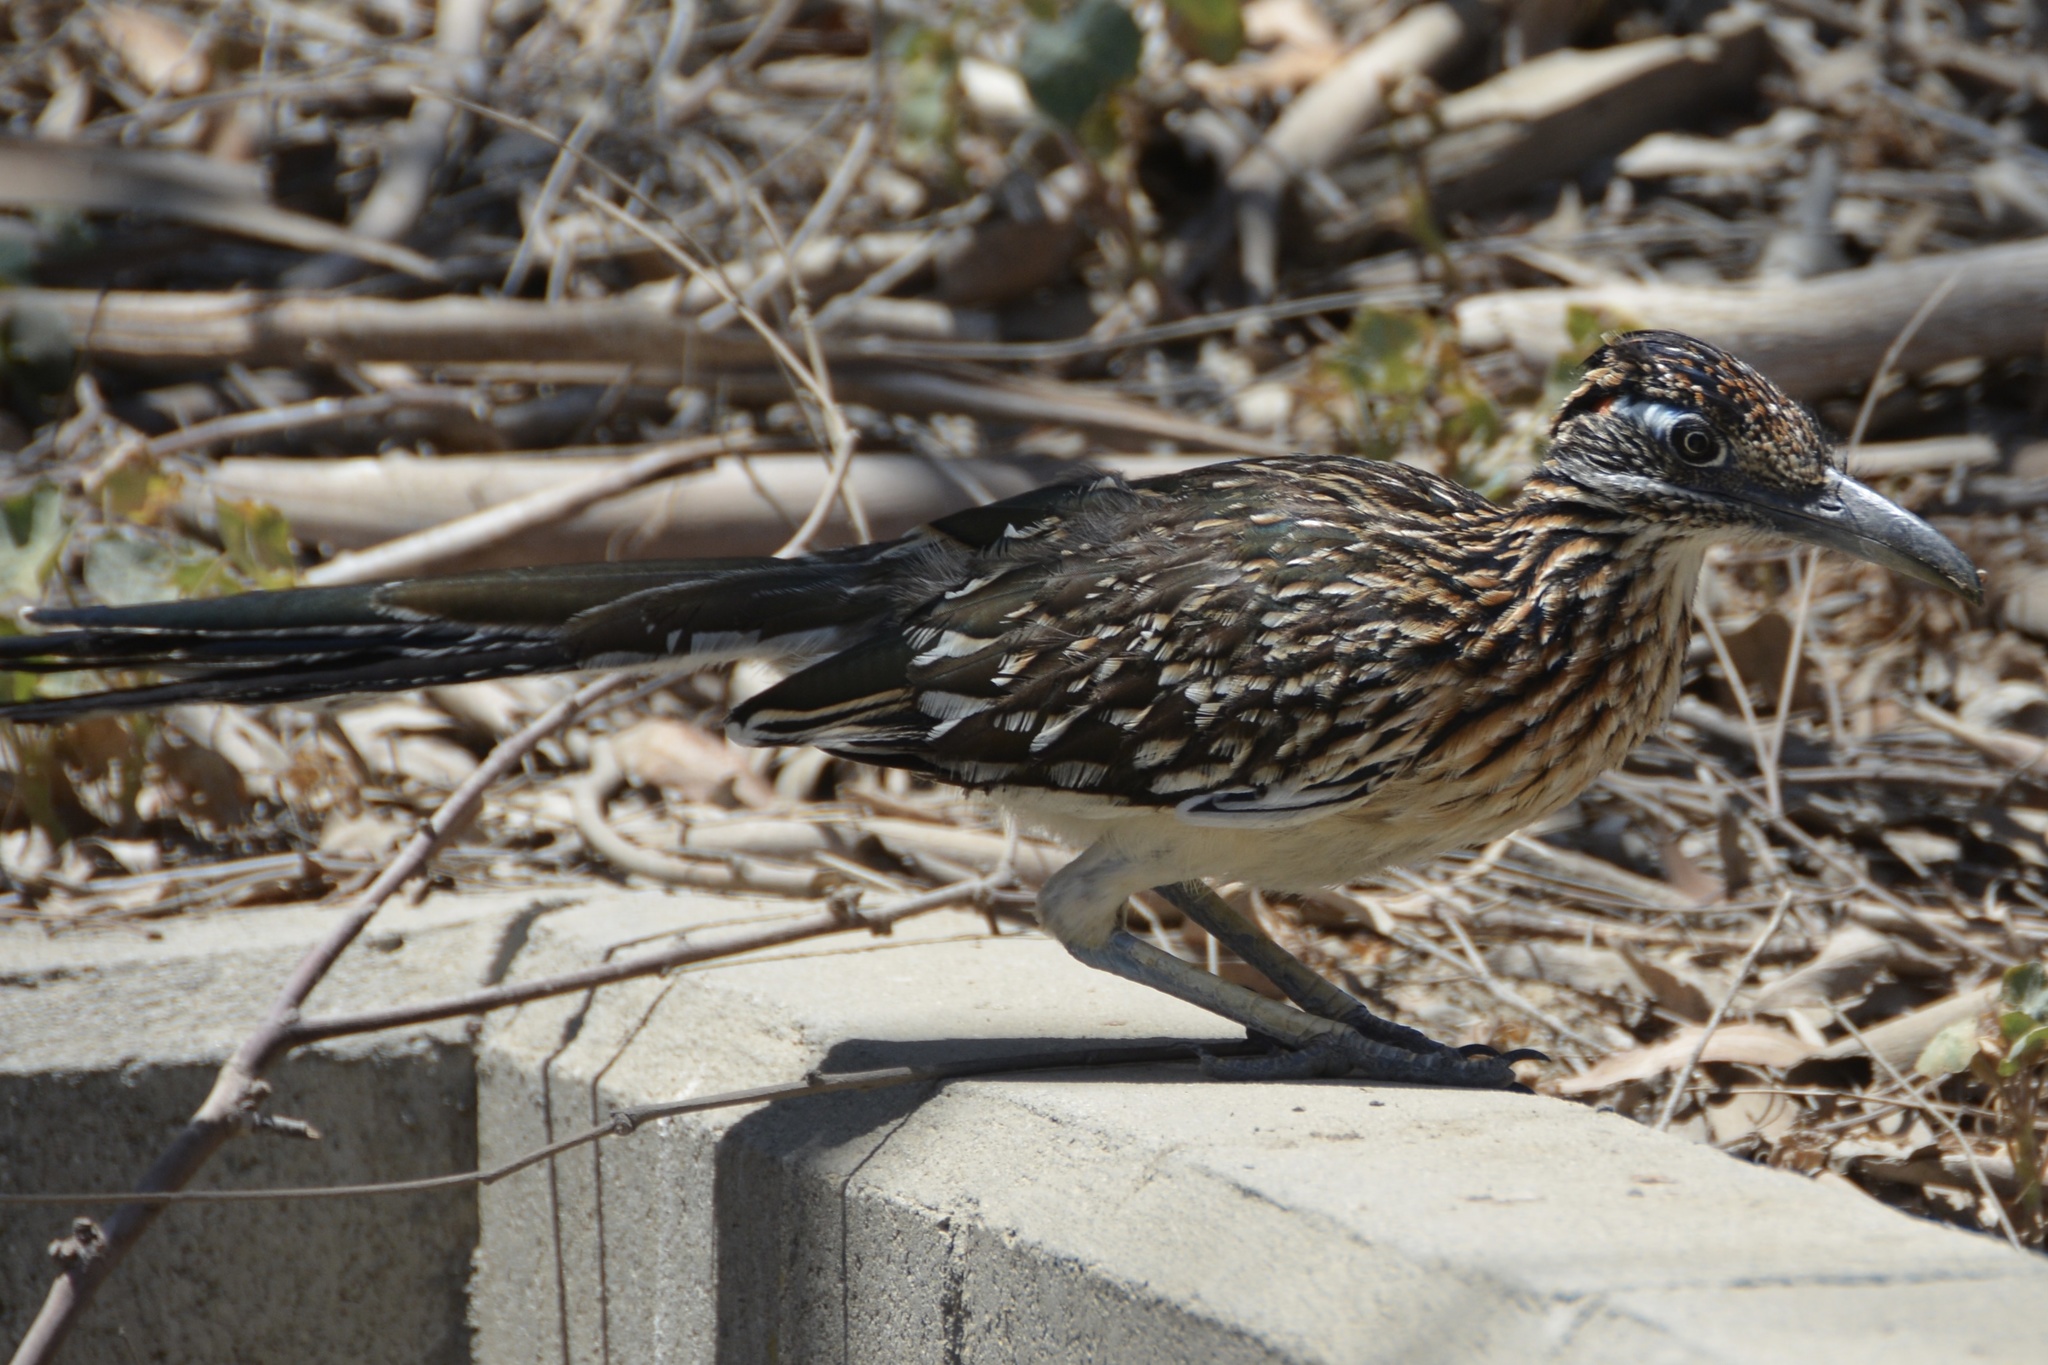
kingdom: Animalia
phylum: Chordata
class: Aves
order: Cuculiformes
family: Cuculidae
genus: Geococcyx
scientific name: Geococcyx californianus
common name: Greater roadrunner
